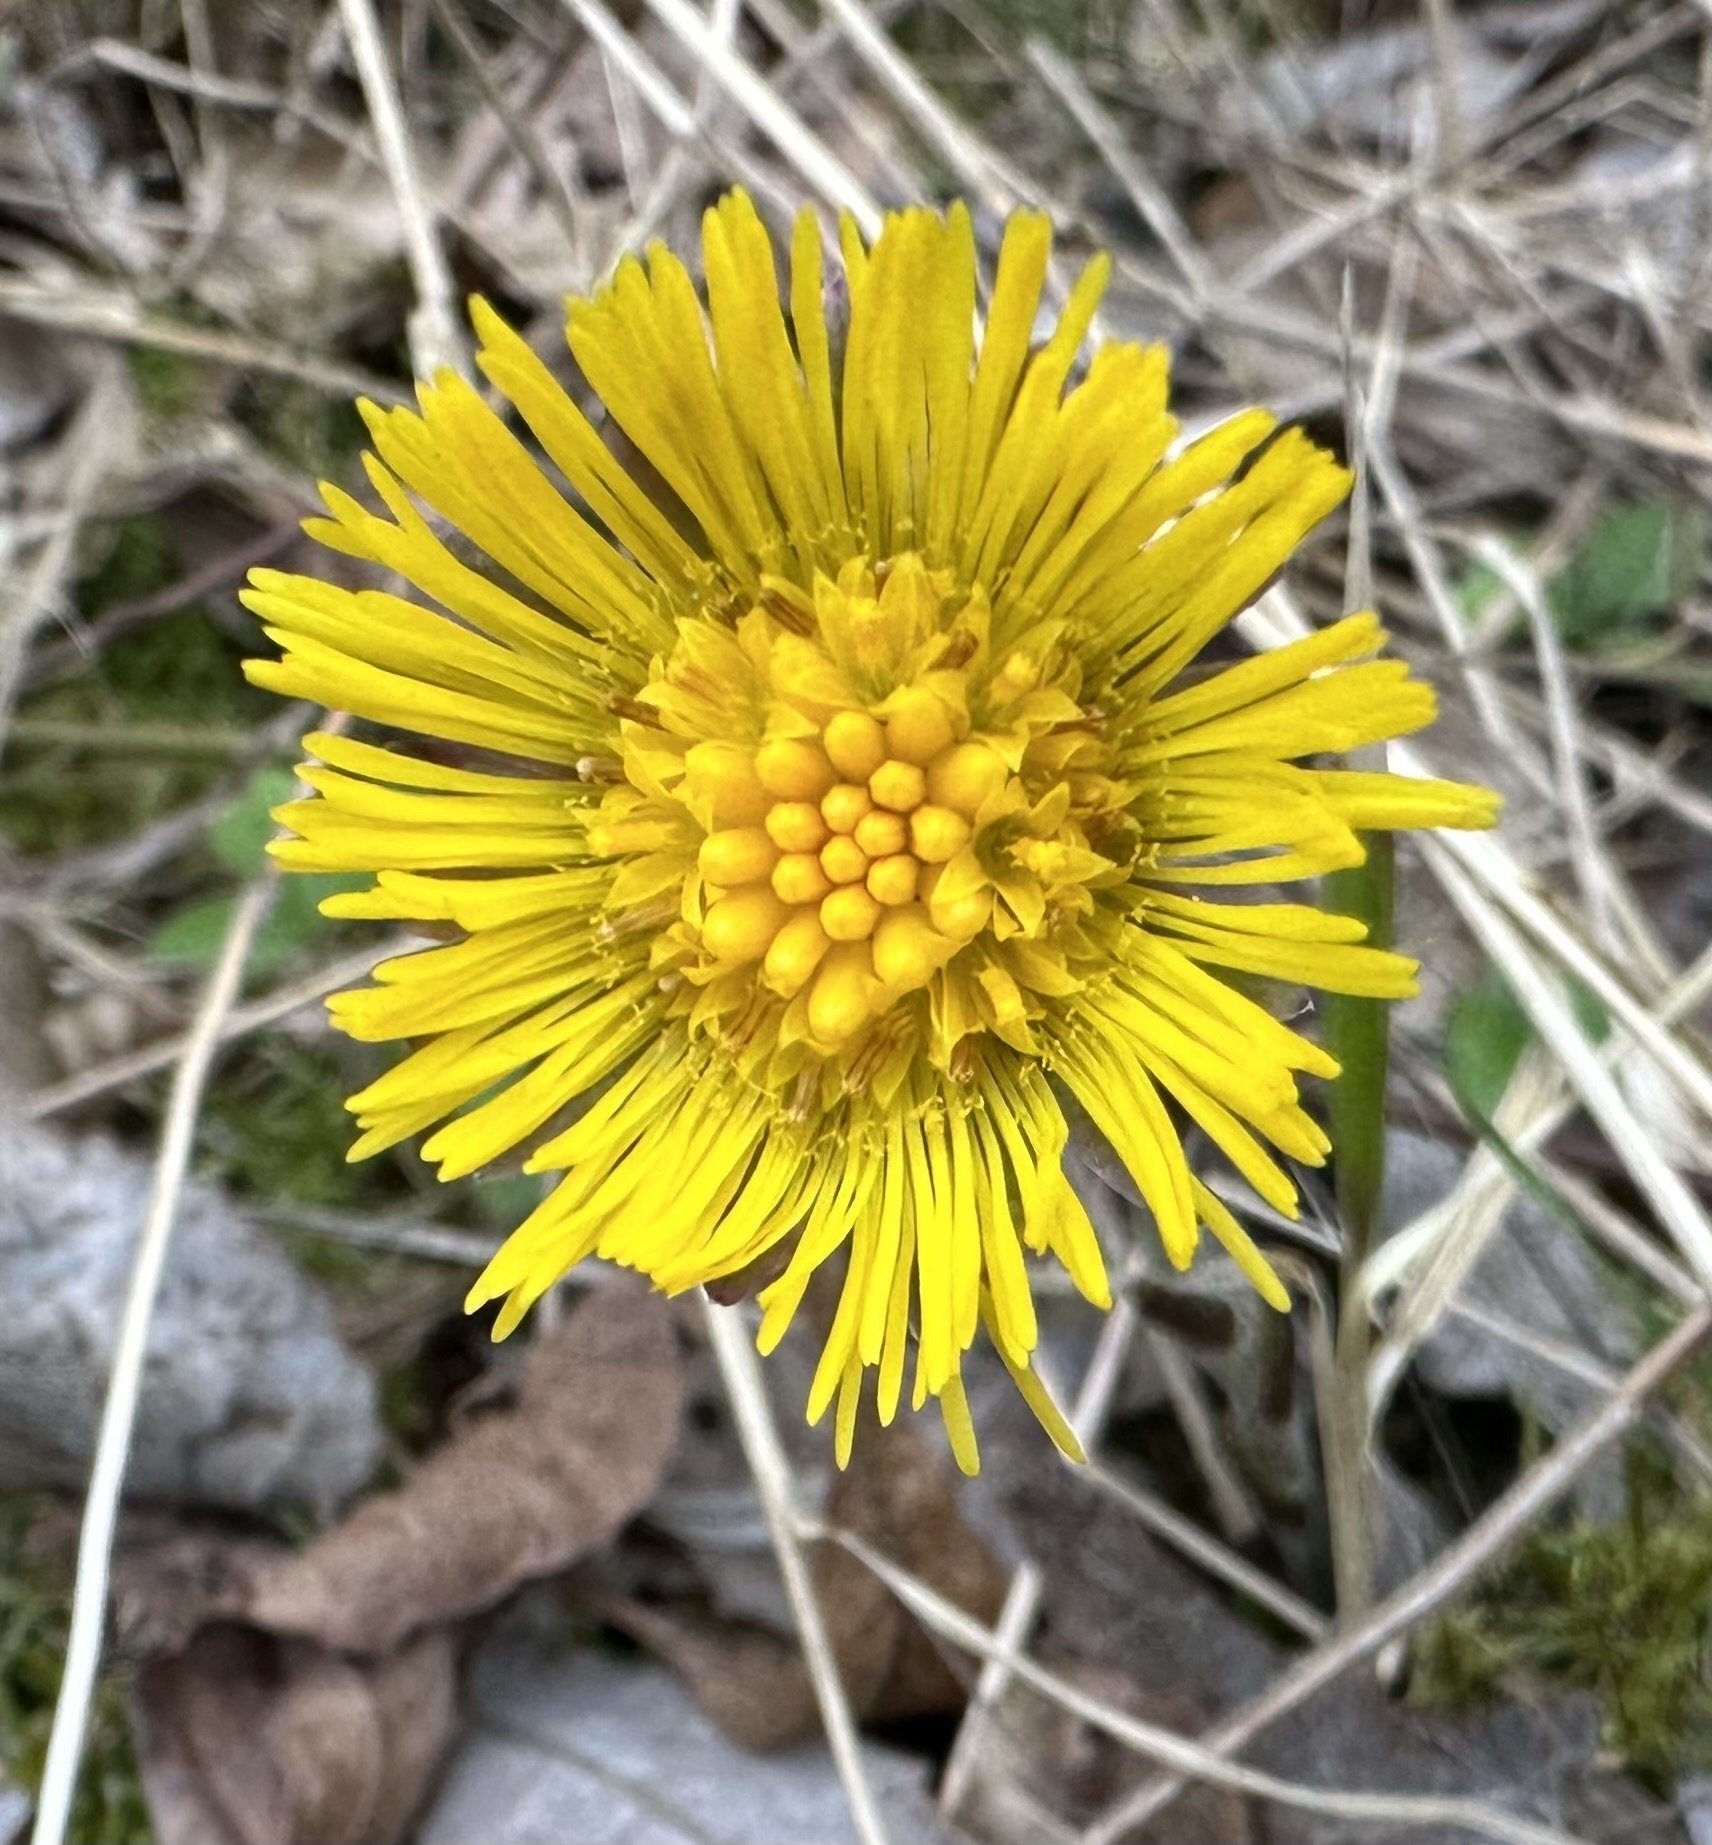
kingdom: Plantae
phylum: Tracheophyta
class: Magnoliopsida
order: Asterales
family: Asteraceae
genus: Tussilago
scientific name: Tussilago farfara
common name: Coltsfoot
